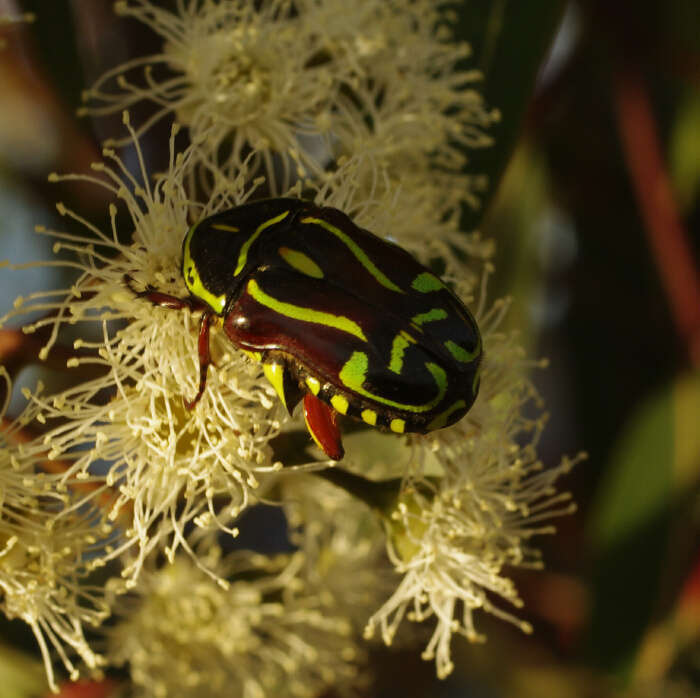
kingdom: Animalia
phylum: Arthropoda
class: Insecta
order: Coleoptera
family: Scarabaeidae
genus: Eupoecila
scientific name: Eupoecila australasiae
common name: Fiddler beetle
